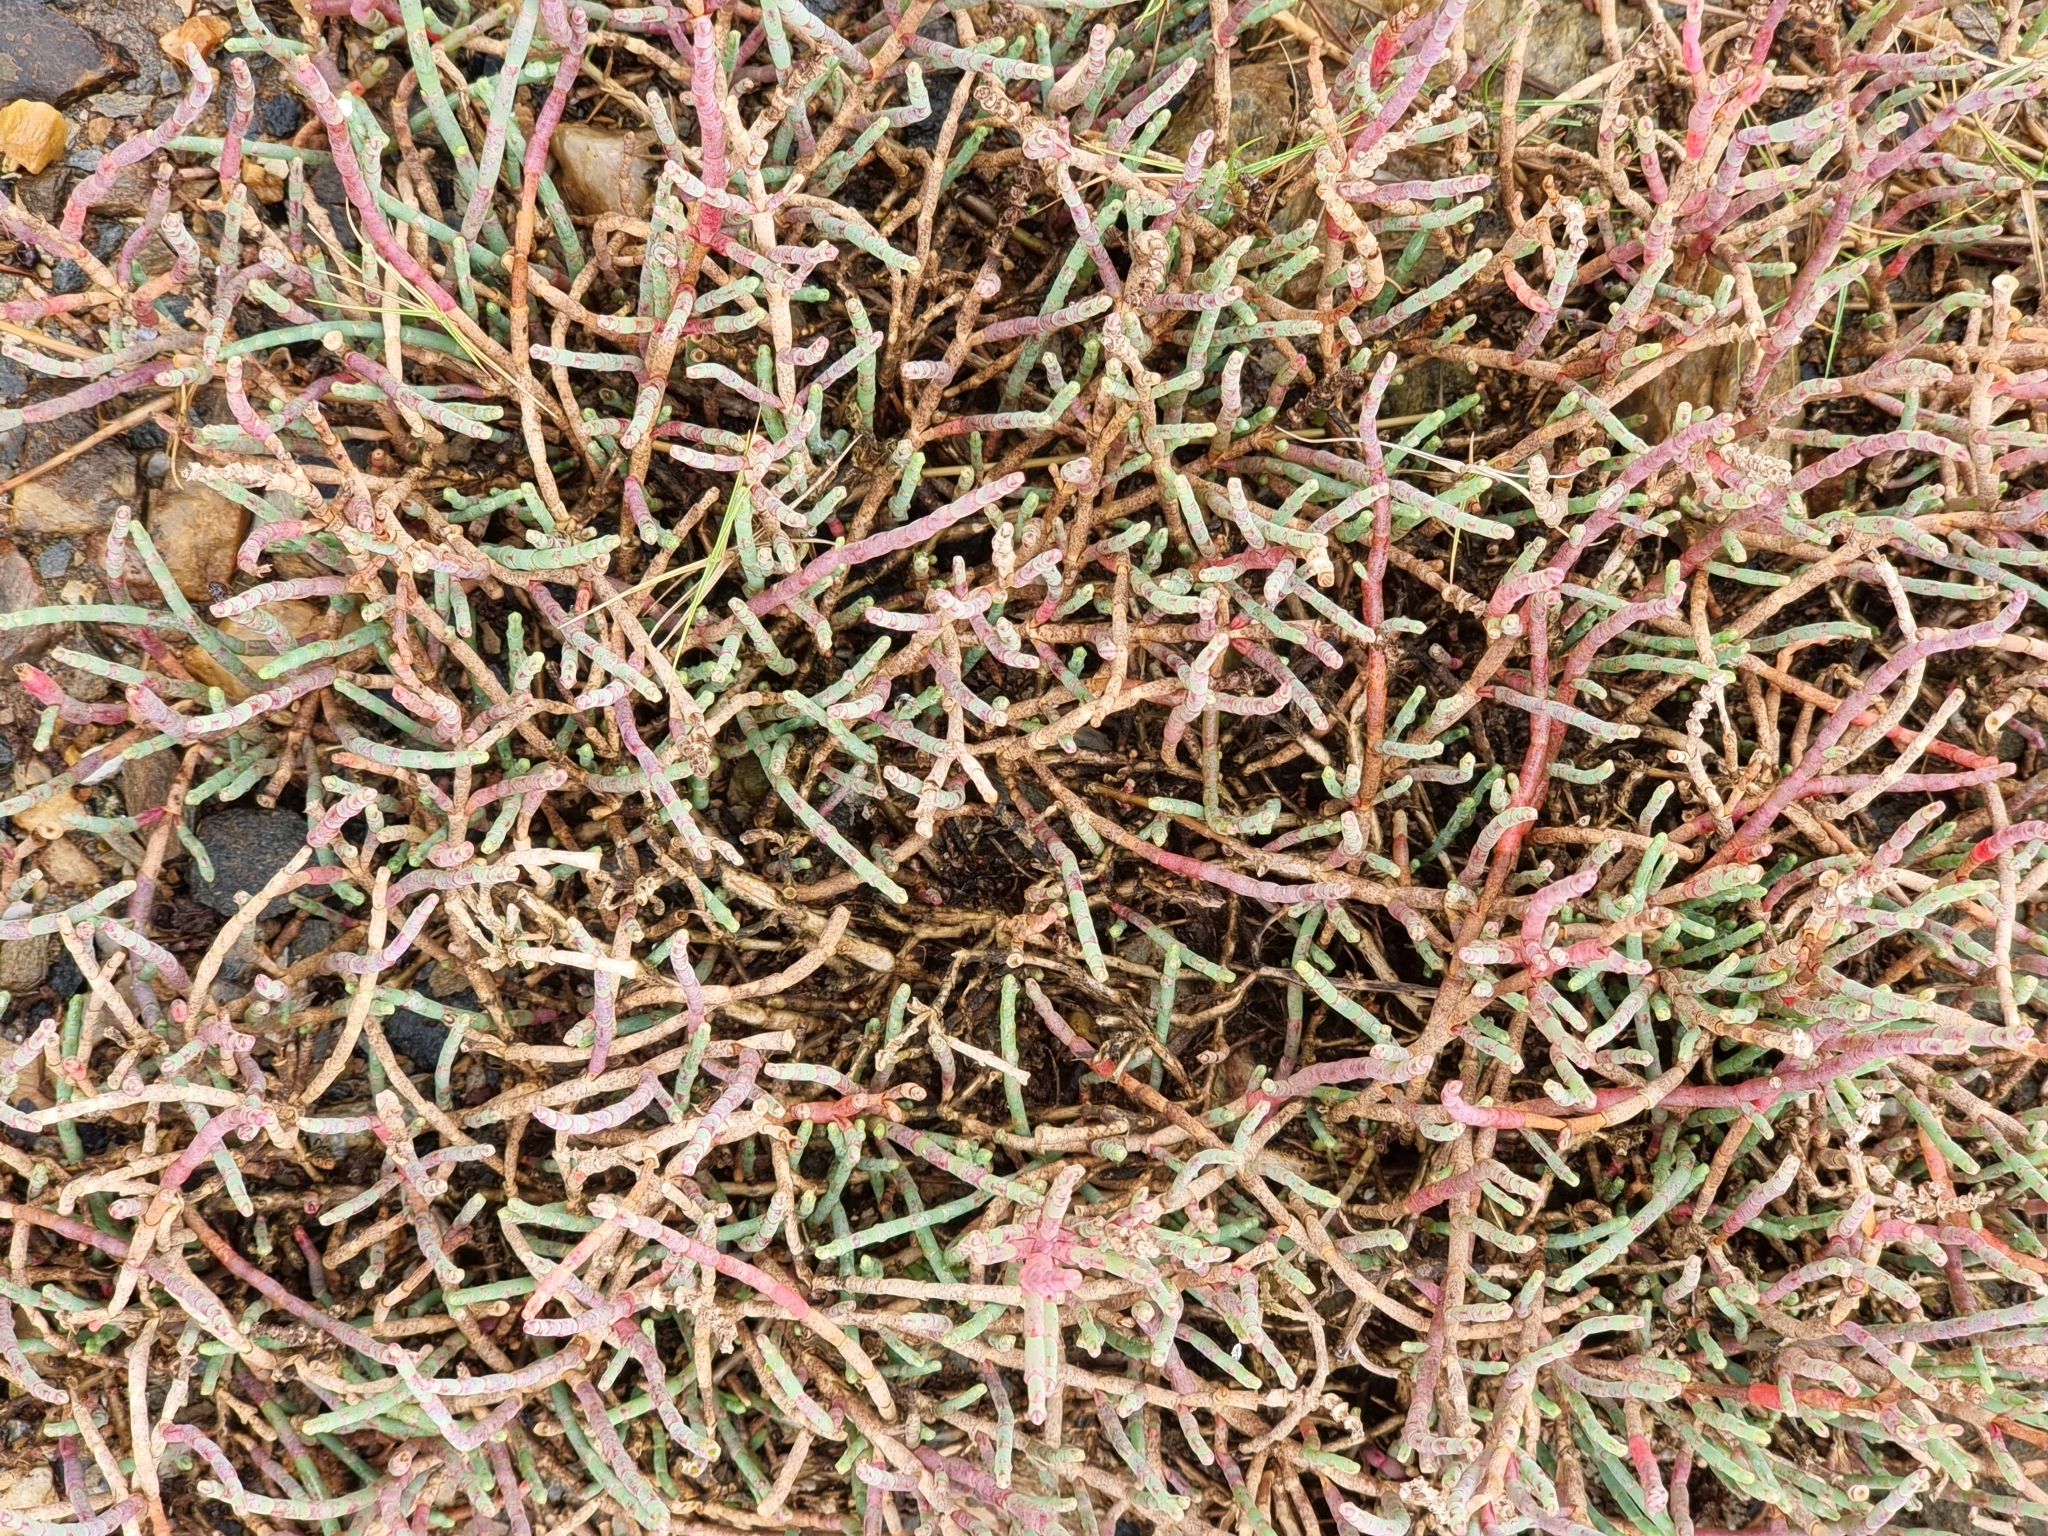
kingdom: Plantae
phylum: Tracheophyta
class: Magnoliopsida
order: Caryophyllales
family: Amaranthaceae
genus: Salicornia
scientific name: Salicornia quinqueflora
